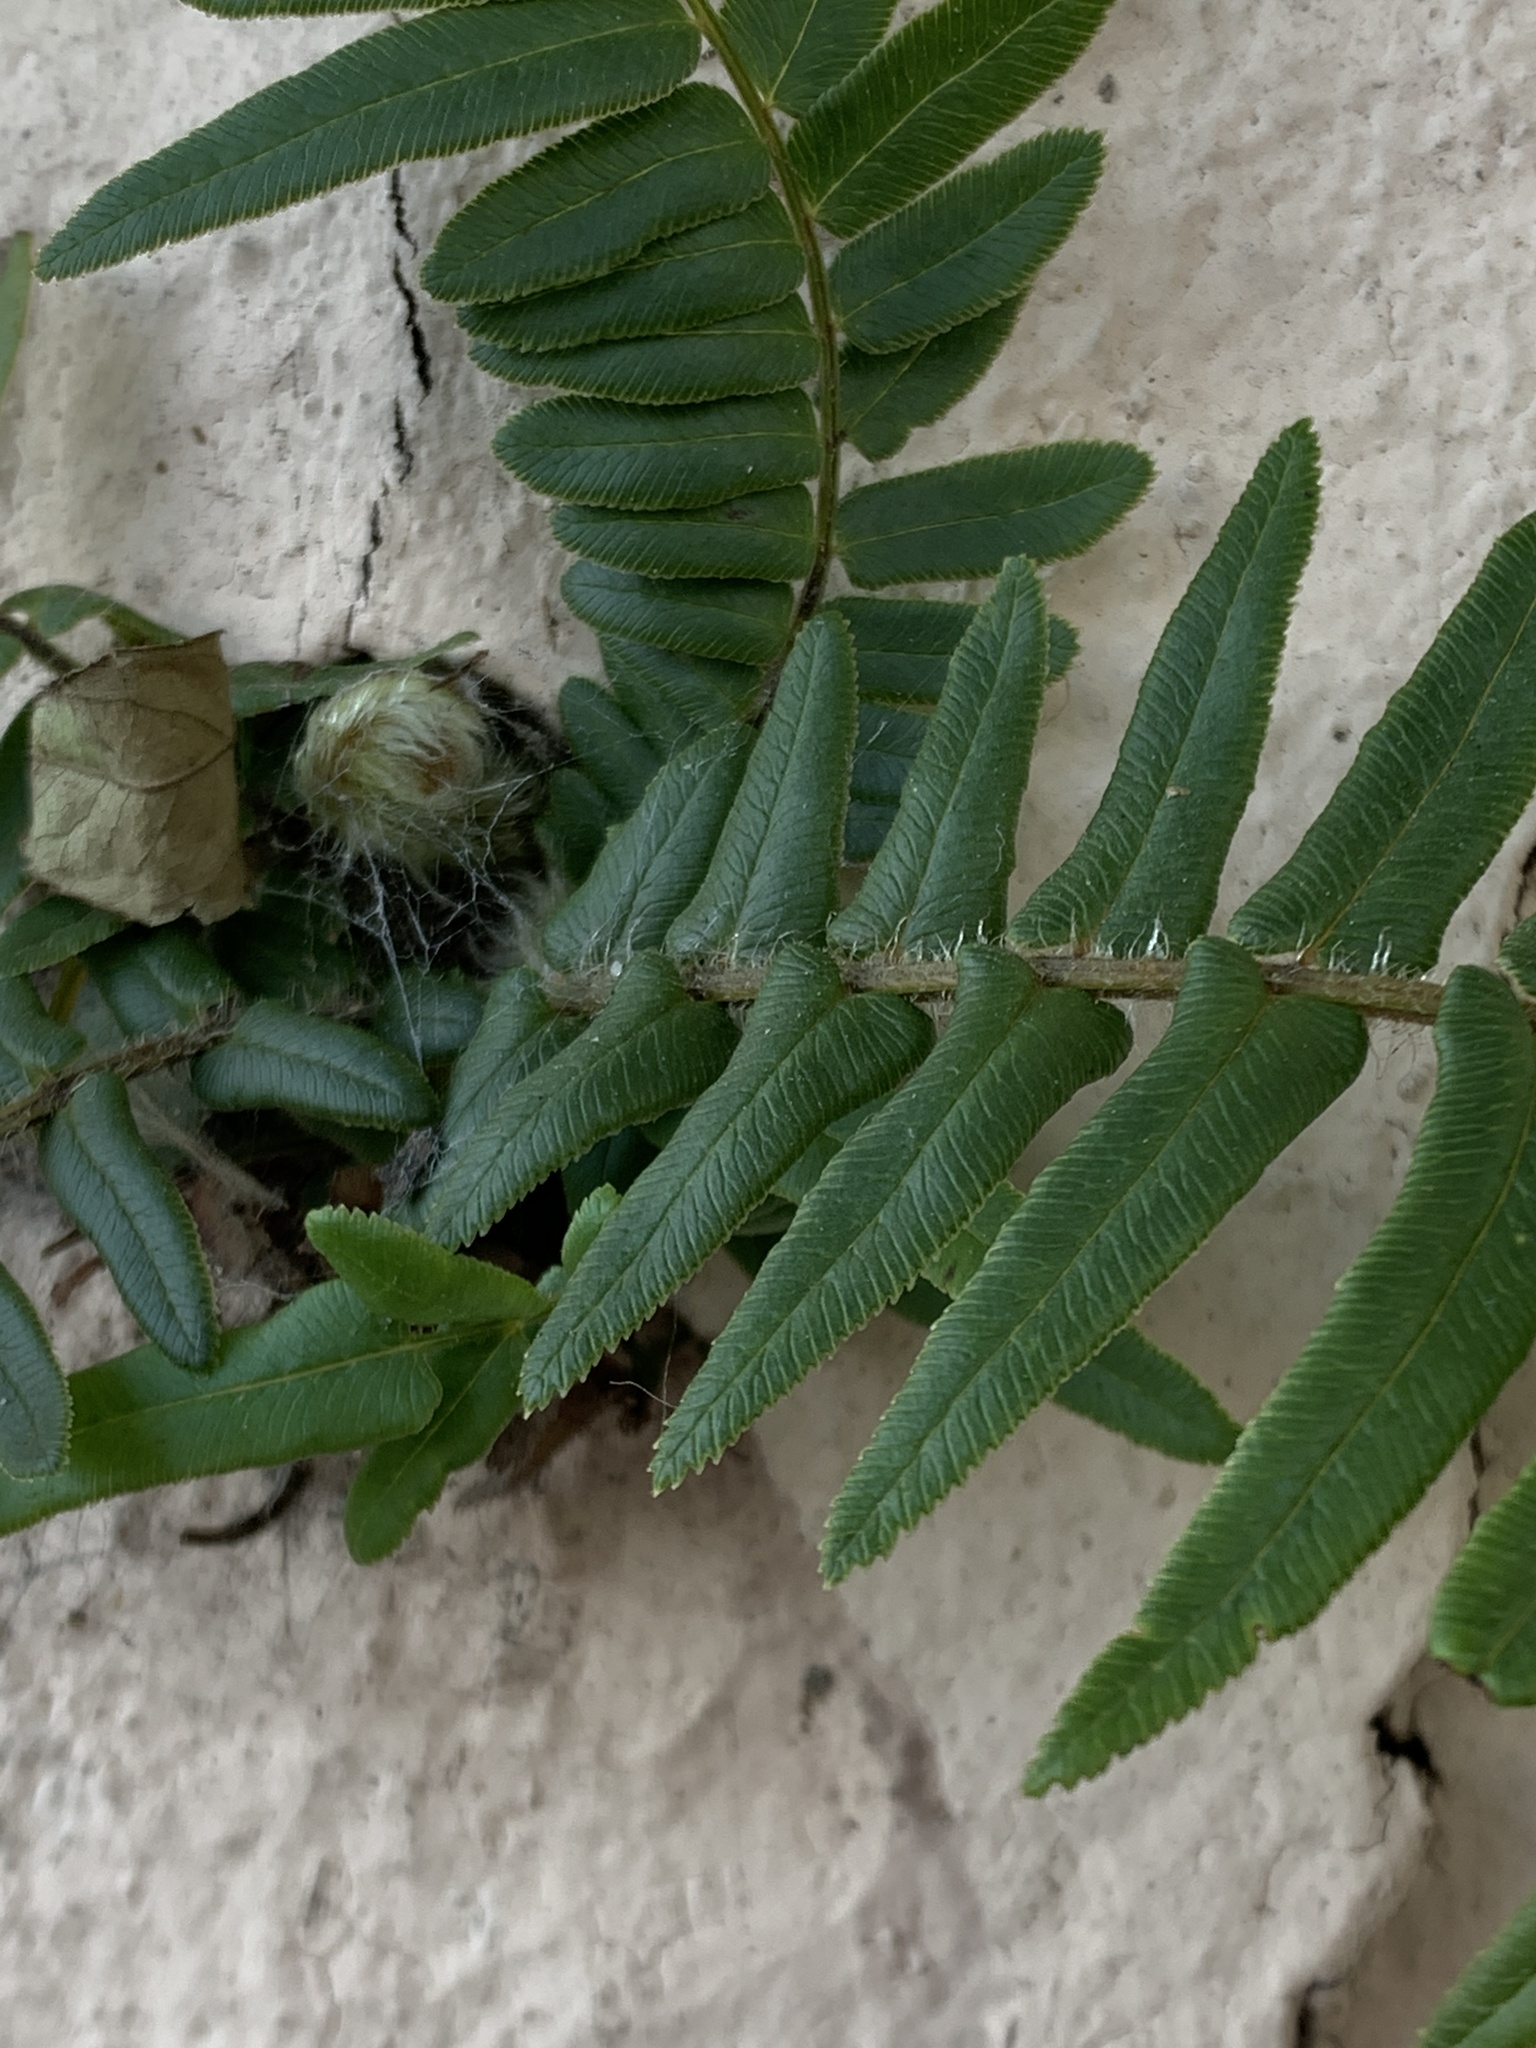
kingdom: Plantae
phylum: Tracheophyta
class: Polypodiopsida
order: Polypodiales
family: Pteridaceae
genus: Pteris
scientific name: Pteris vittata
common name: Ladder brake
